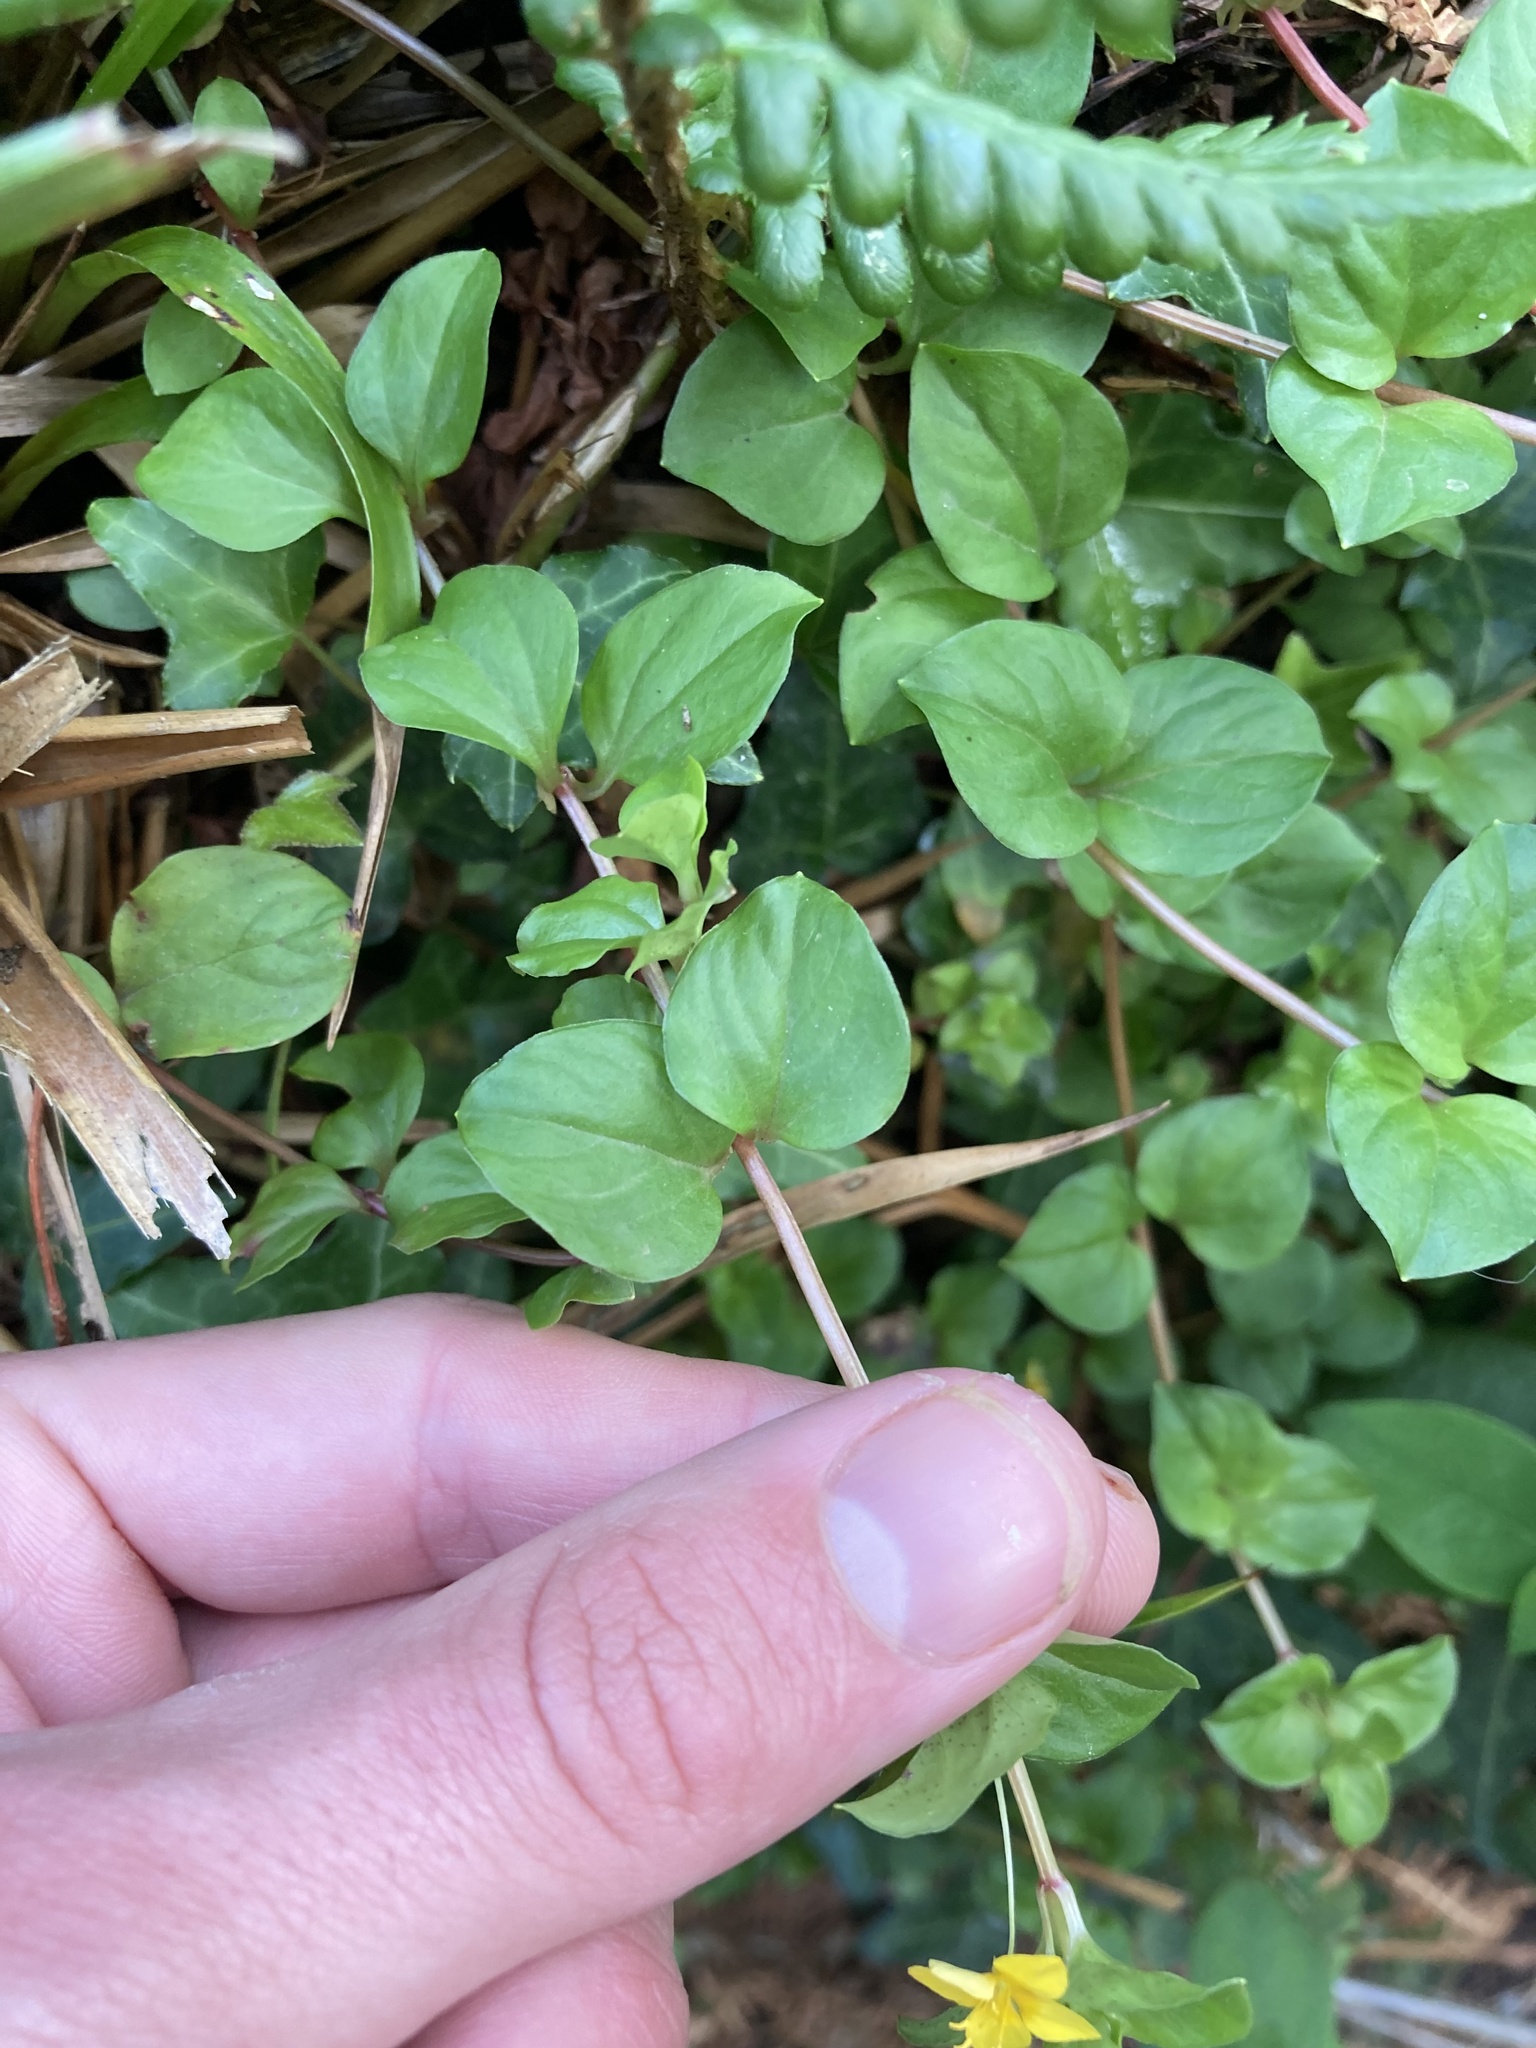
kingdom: Plantae
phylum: Tracheophyta
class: Magnoliopsida
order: Ericales
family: Primulaceae
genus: Lysimachia
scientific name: Lysimachia nemorum
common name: Yellow pimpernel
